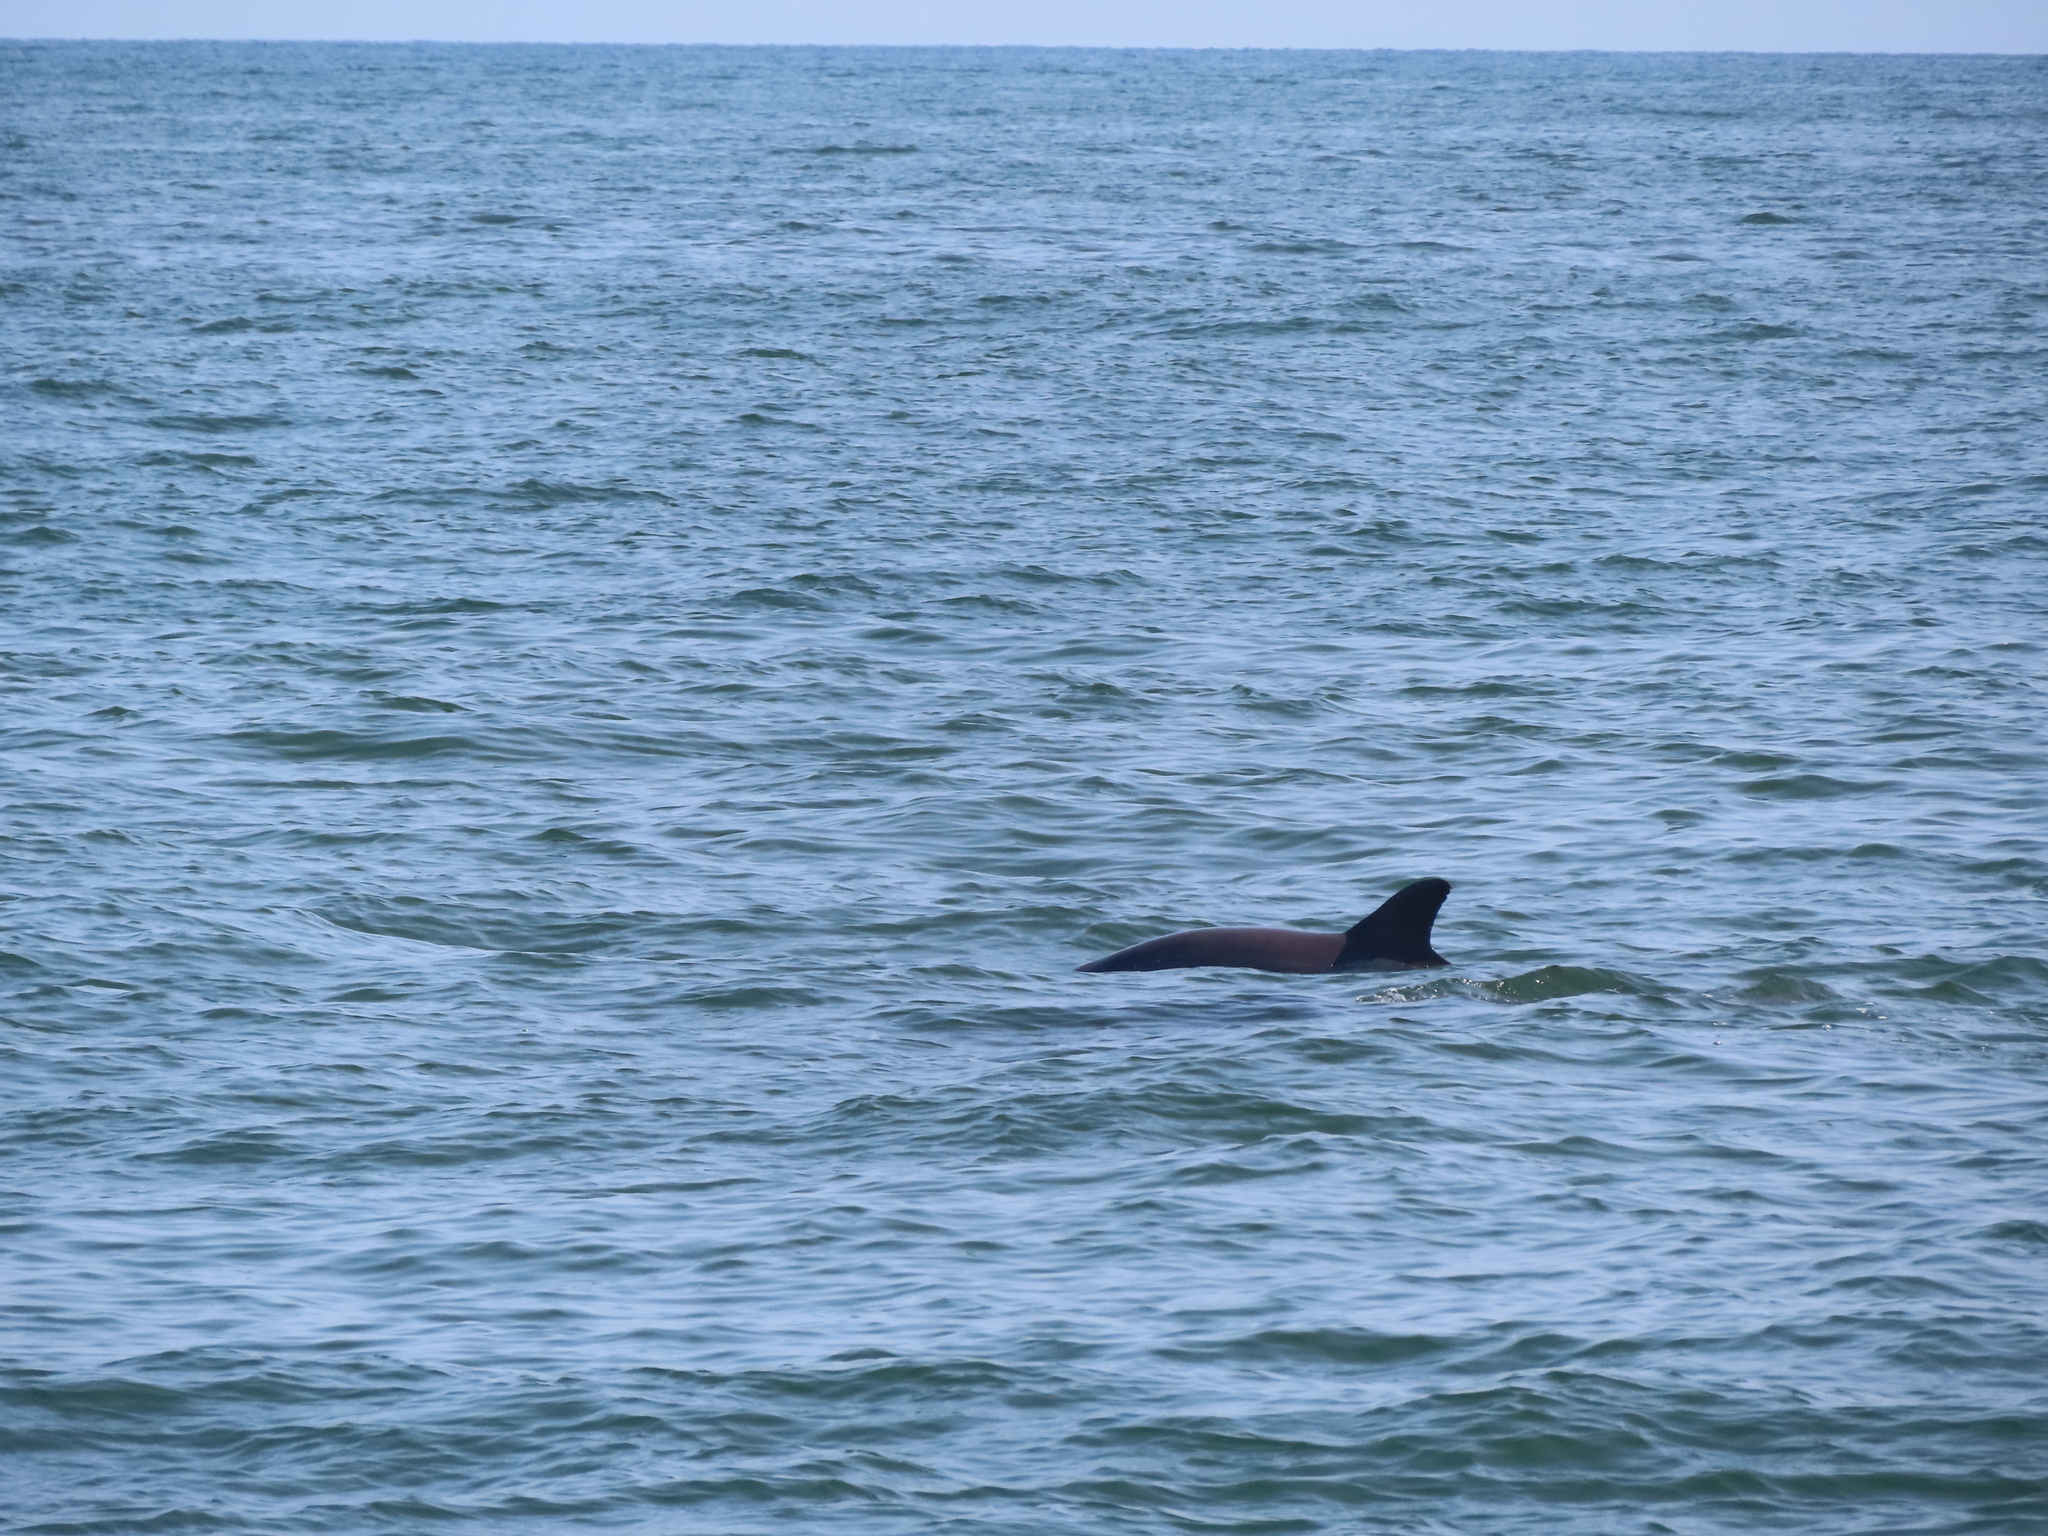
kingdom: Animalia
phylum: Chordata
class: Mammalia
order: Cetacea
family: Delphinidae
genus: Tursiops
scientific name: Tursiops truncatus
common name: Bottlenose dolphin
